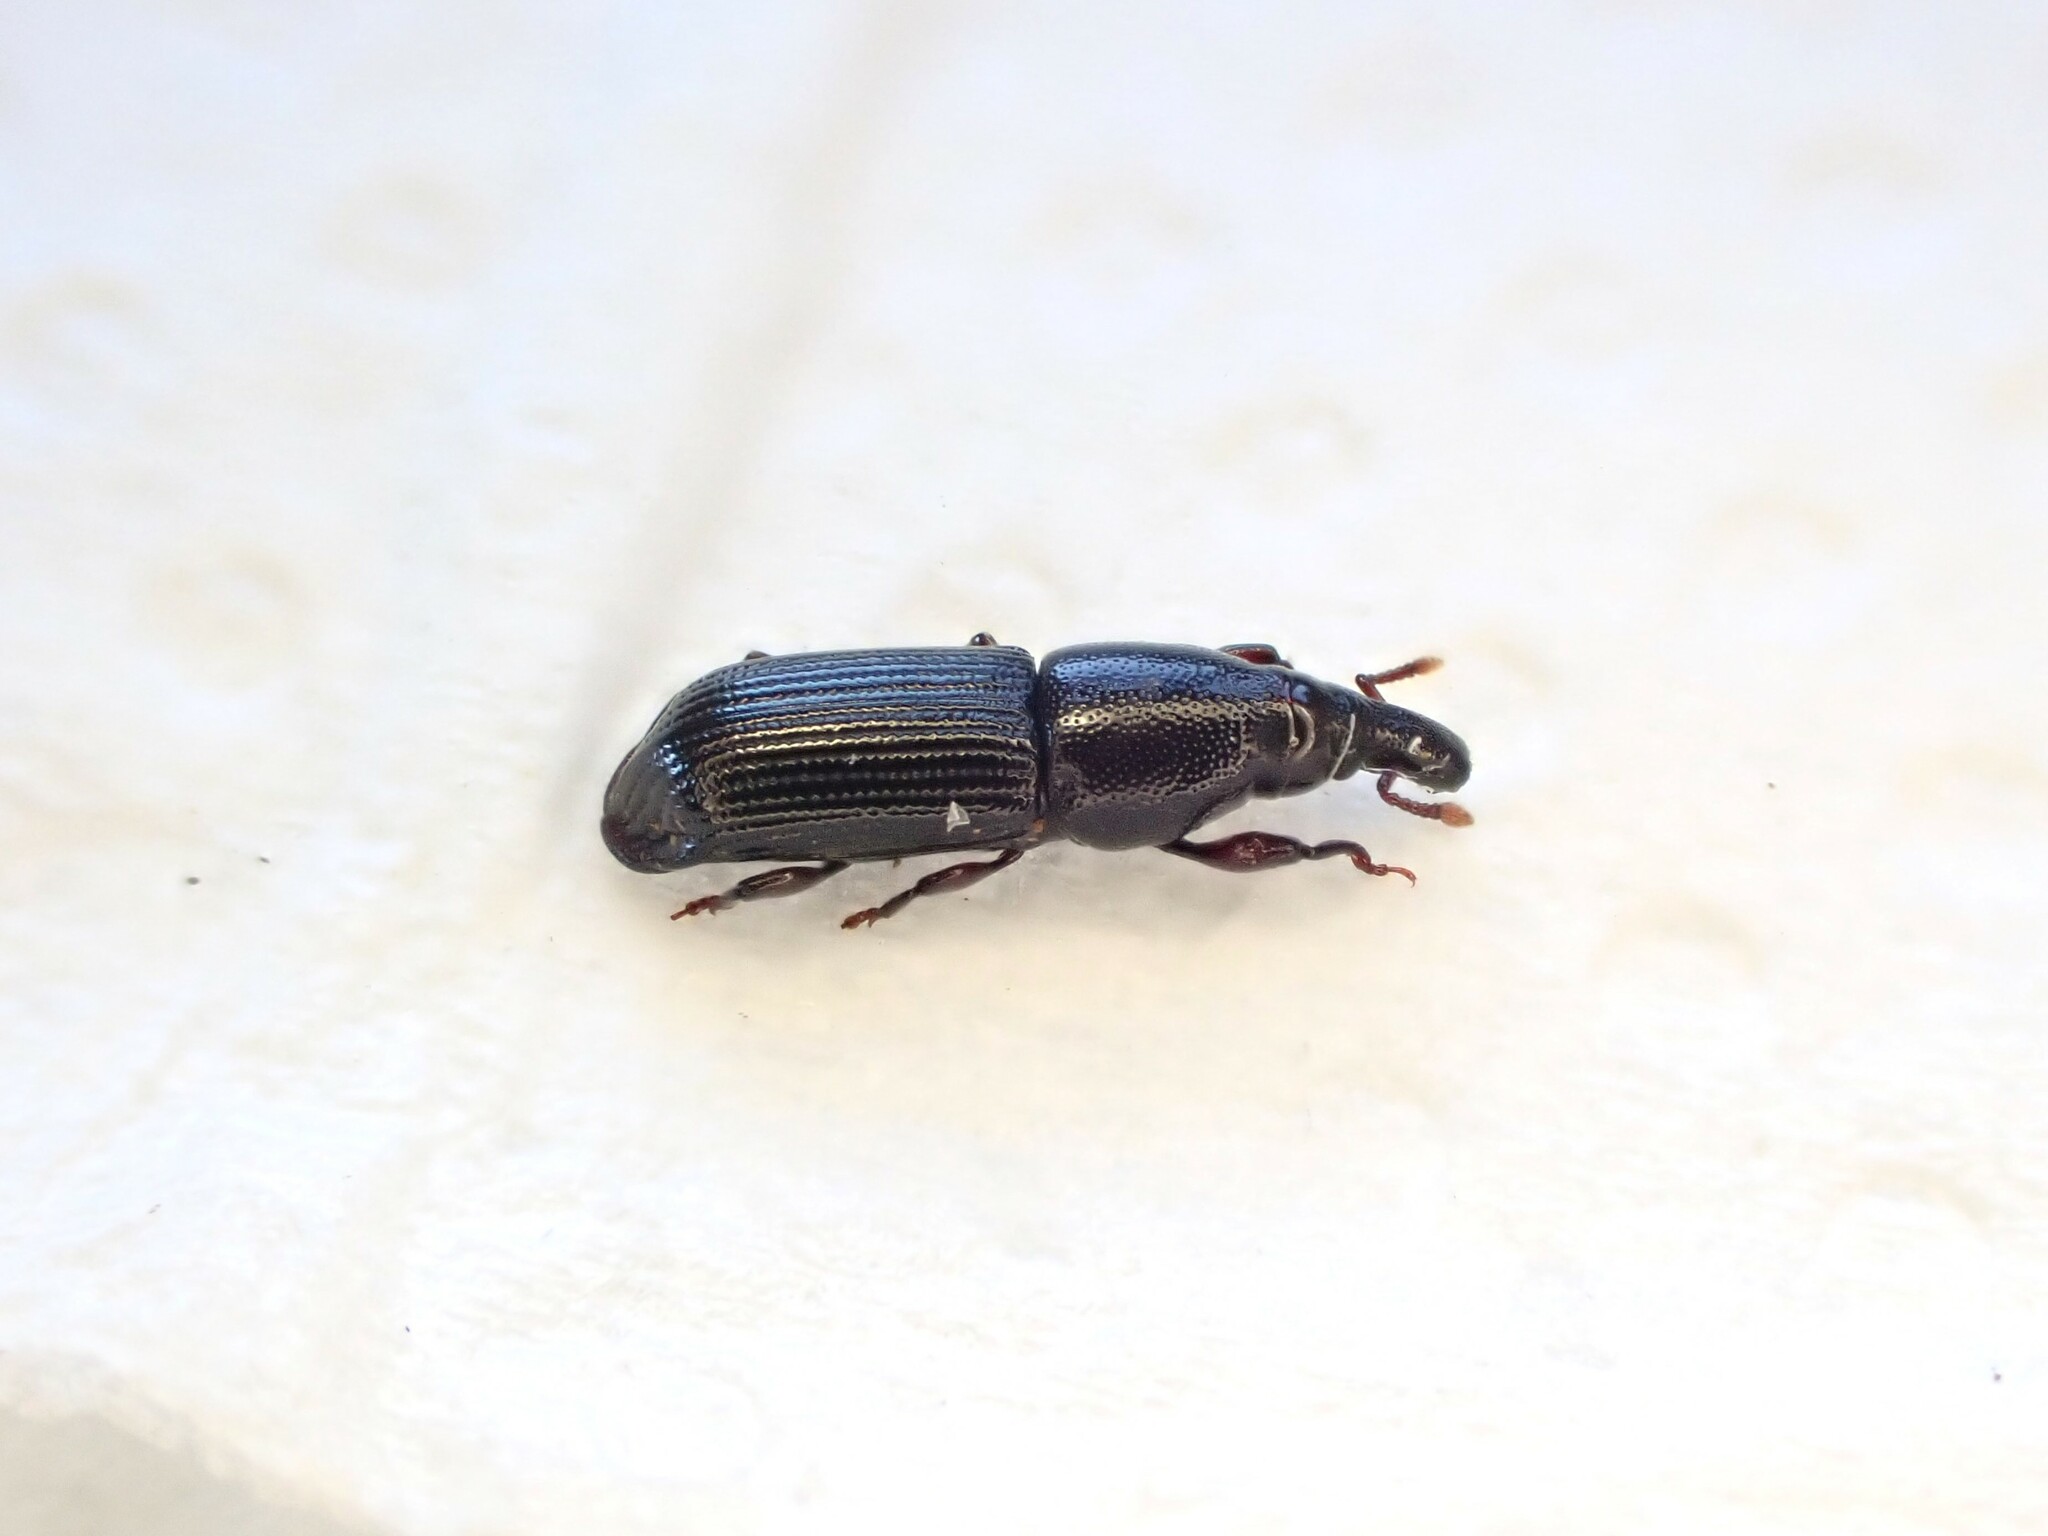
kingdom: Animalia
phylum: Arthropoda
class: Insecta
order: Coleoptera
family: Curculionidae
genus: Torostoma
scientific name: Torostoma apicale
